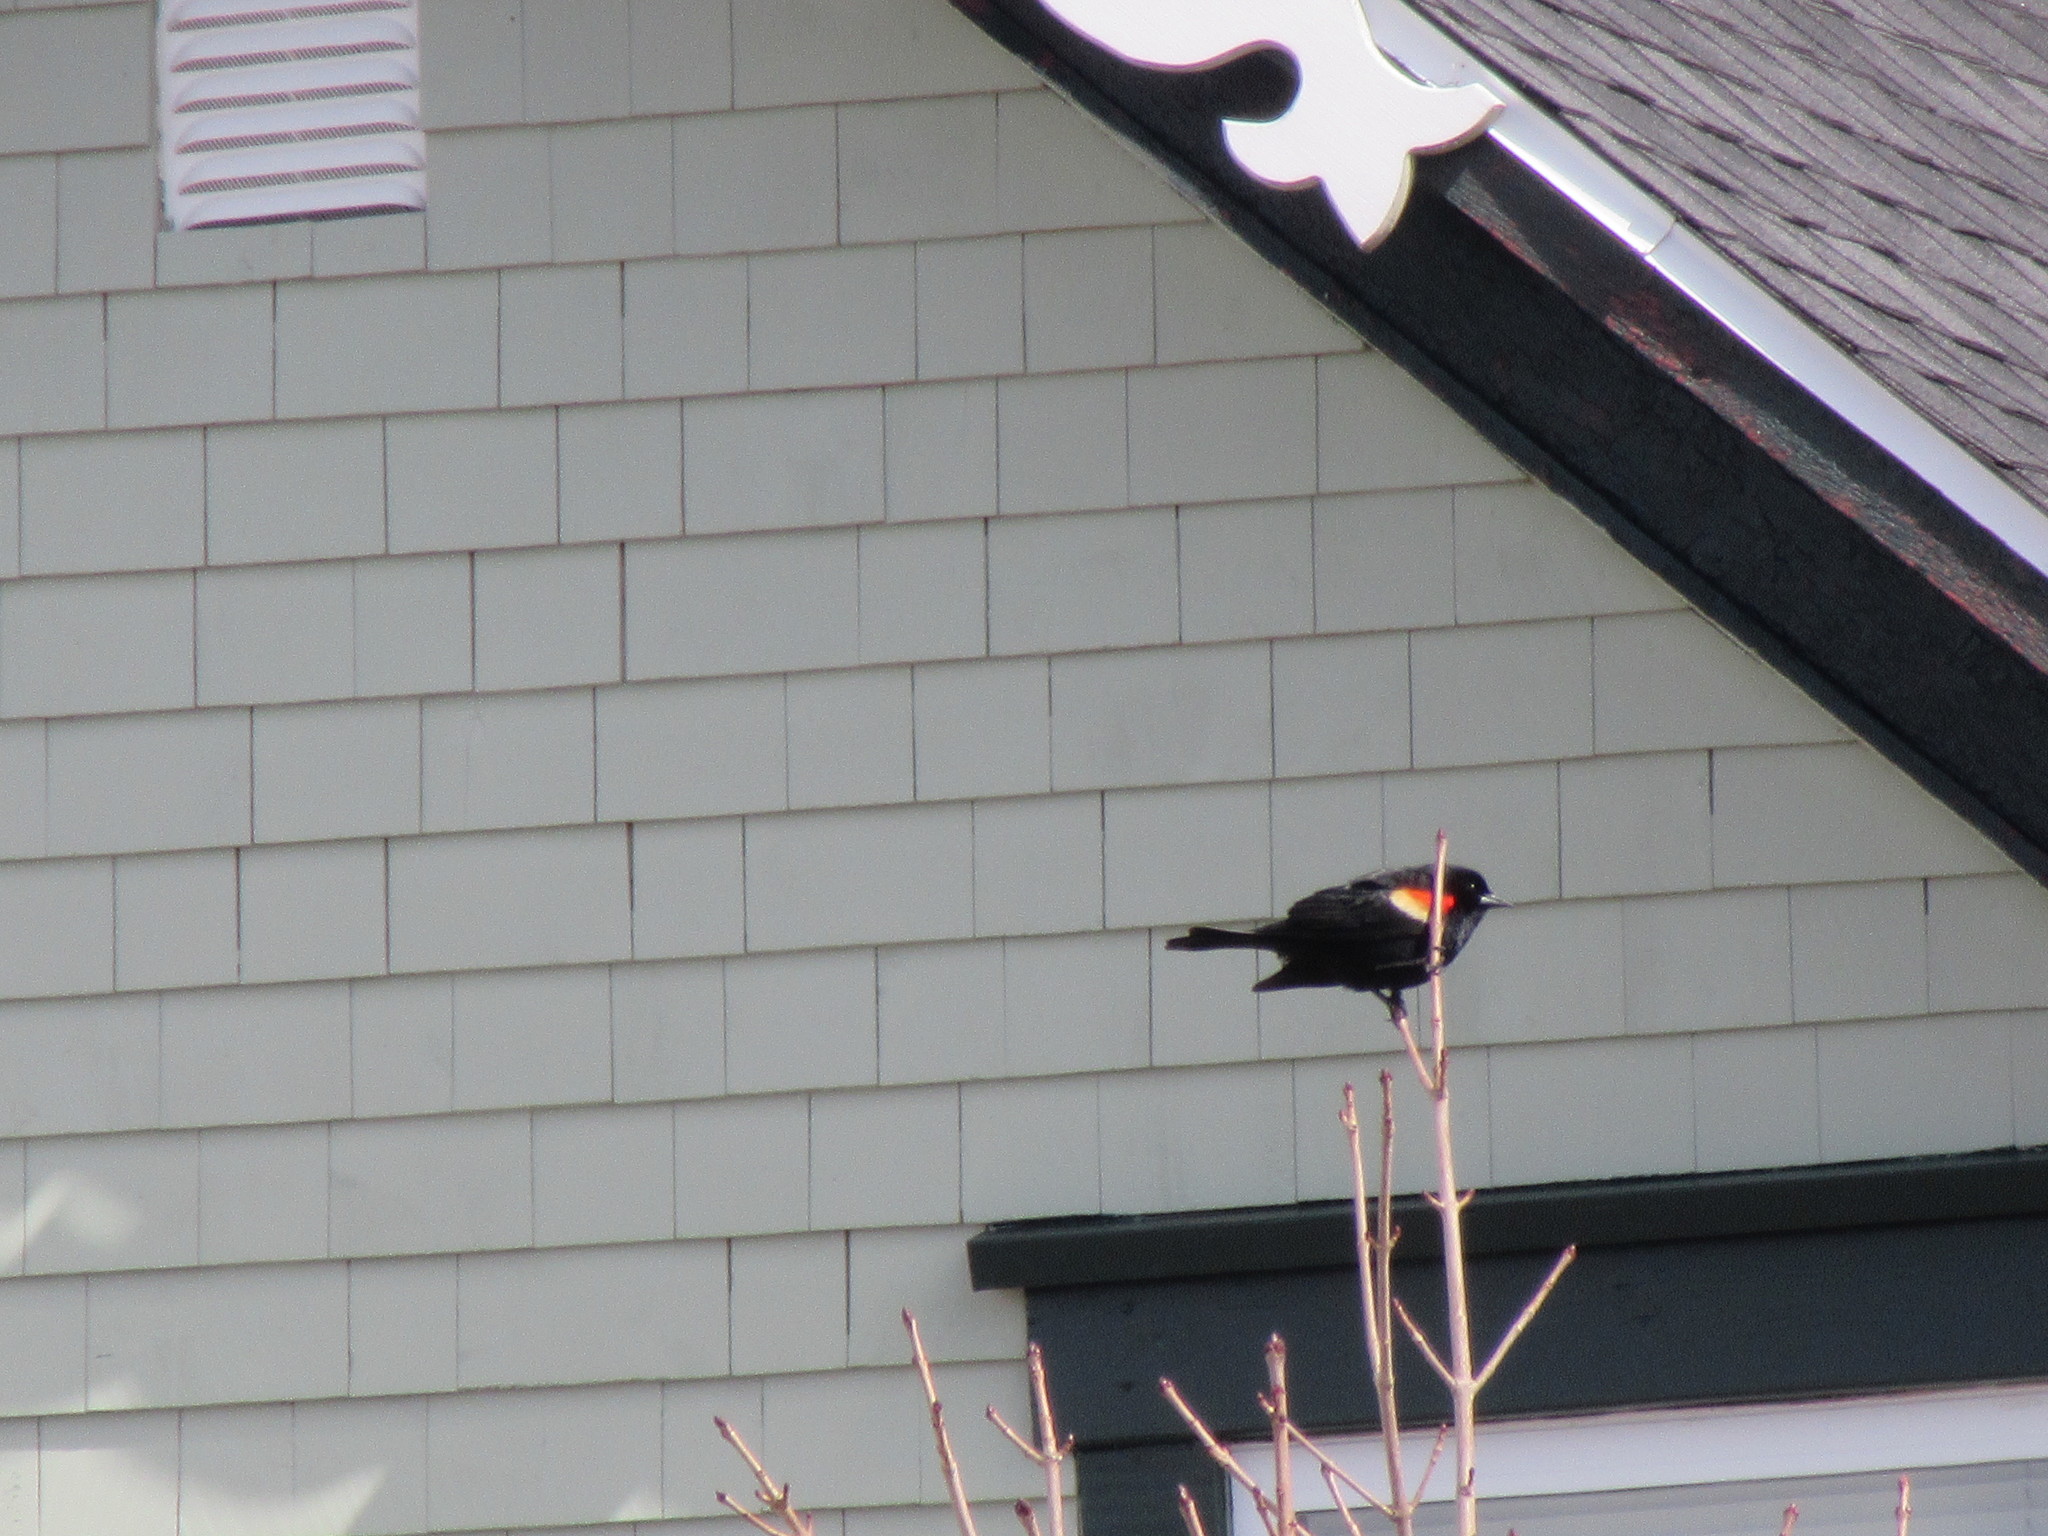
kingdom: Animalia
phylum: Chordata
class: Aves
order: Passeriformes
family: Icteridae
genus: Agelaius
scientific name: Agelaius phoeniceus
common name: Red-winged blackbird
